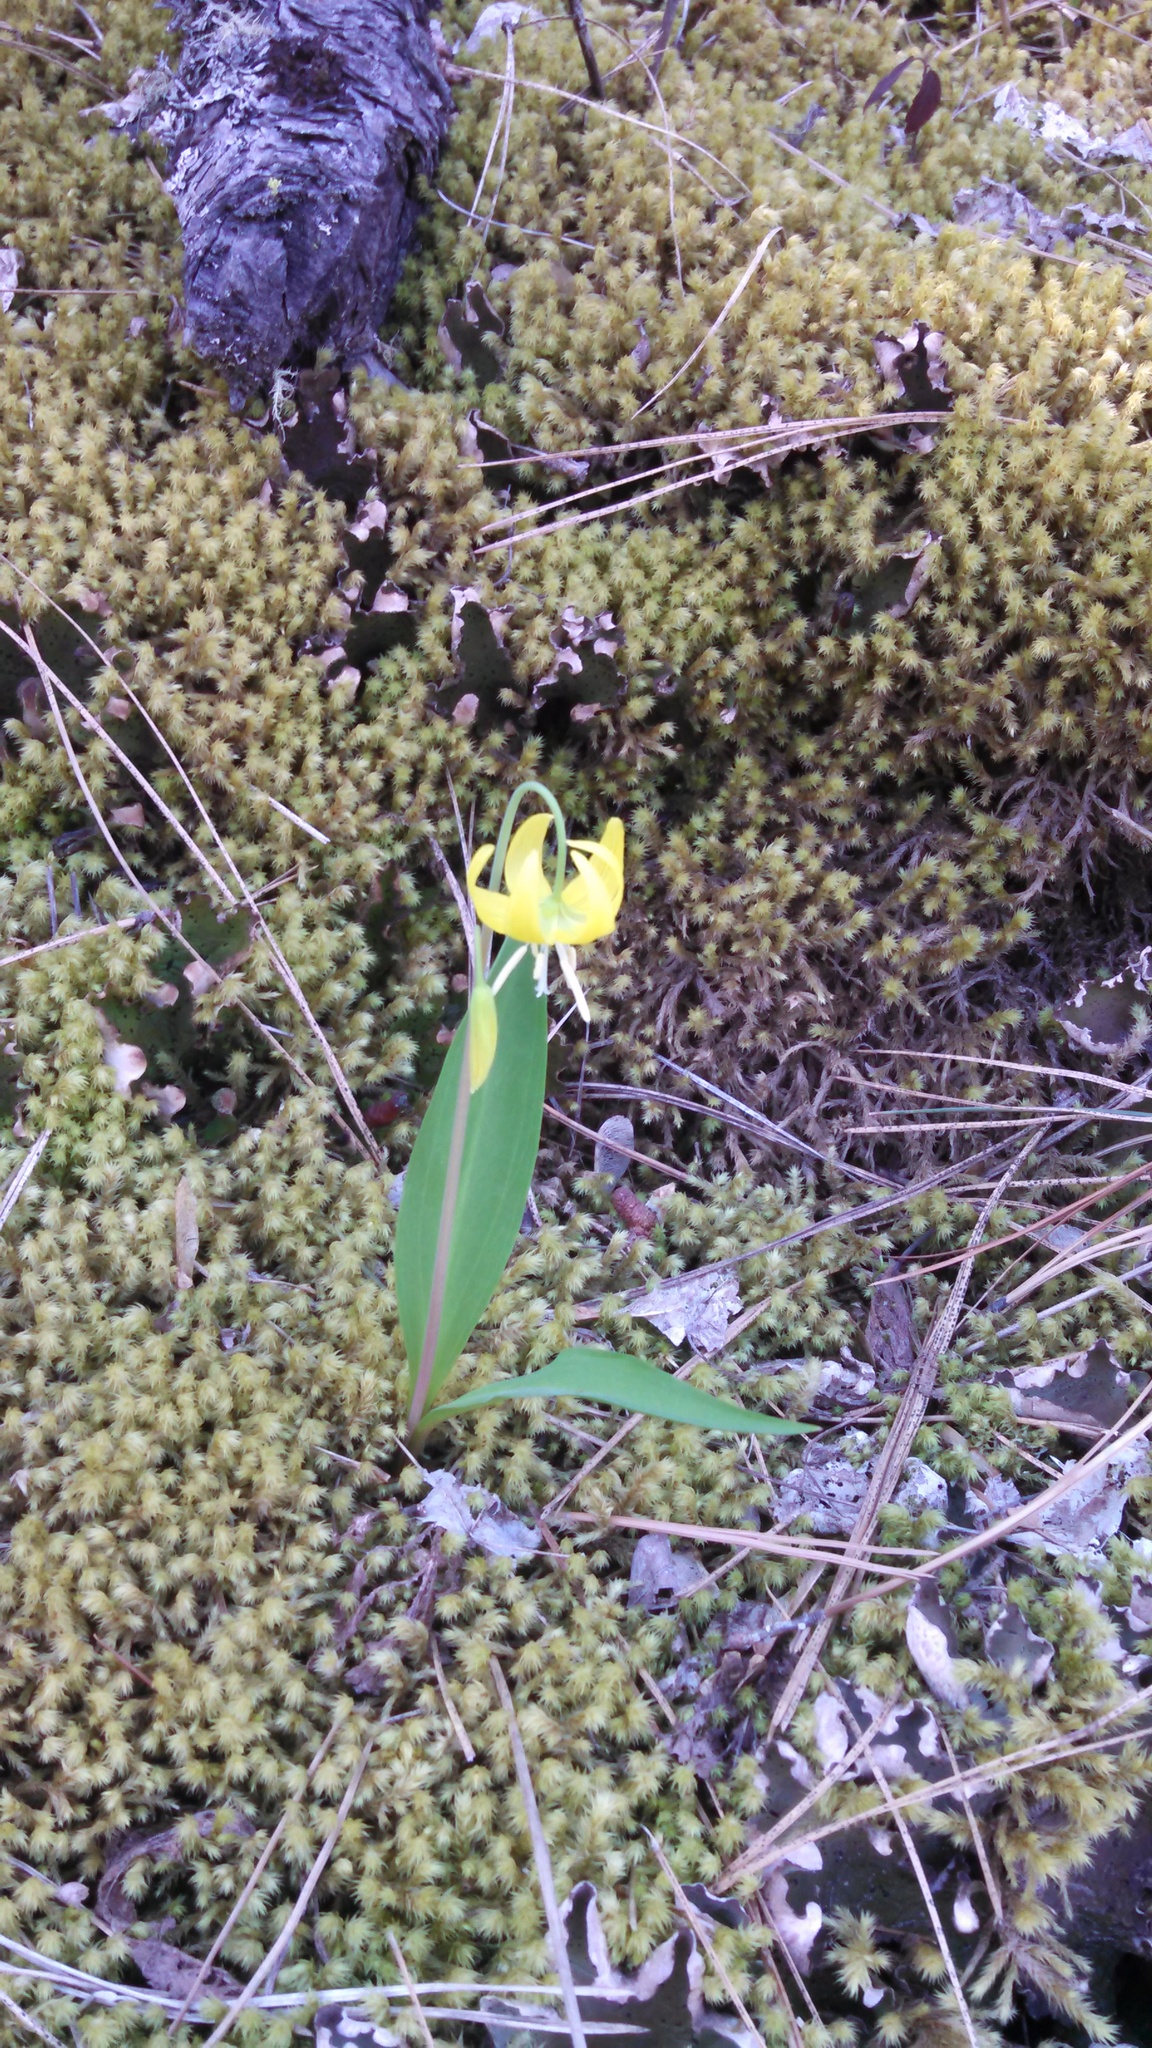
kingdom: Plantae
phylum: Tracheophyta
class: Liliopsida
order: Liliales
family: Liliaceae
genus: Erythronium
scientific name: Erythronium grandiflorum
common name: Avalanche-lily
